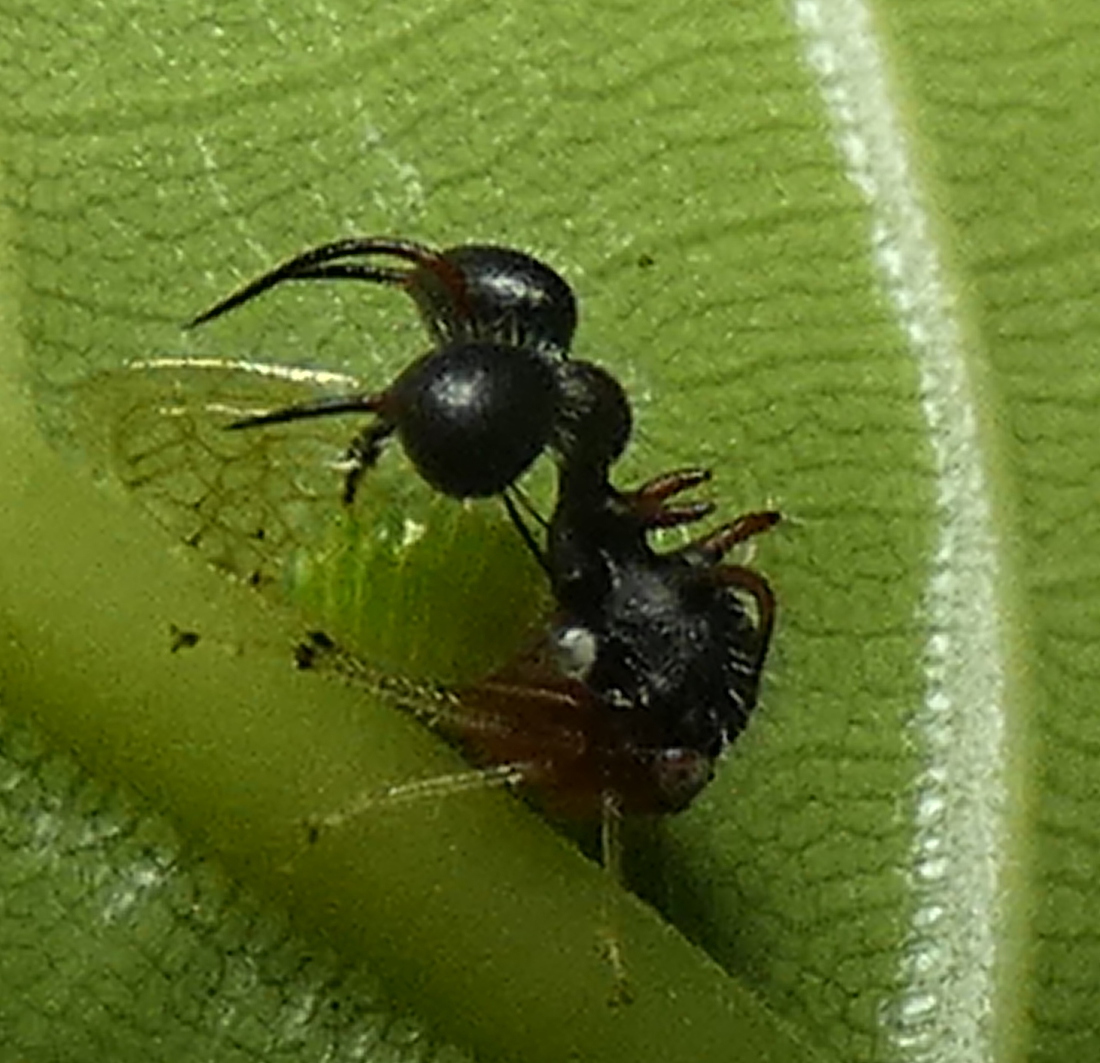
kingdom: Animalia
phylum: Arthropoda
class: Insecta
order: Hemiptera
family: Membracidae
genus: Cyphonia
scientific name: Cyphonia clavata
